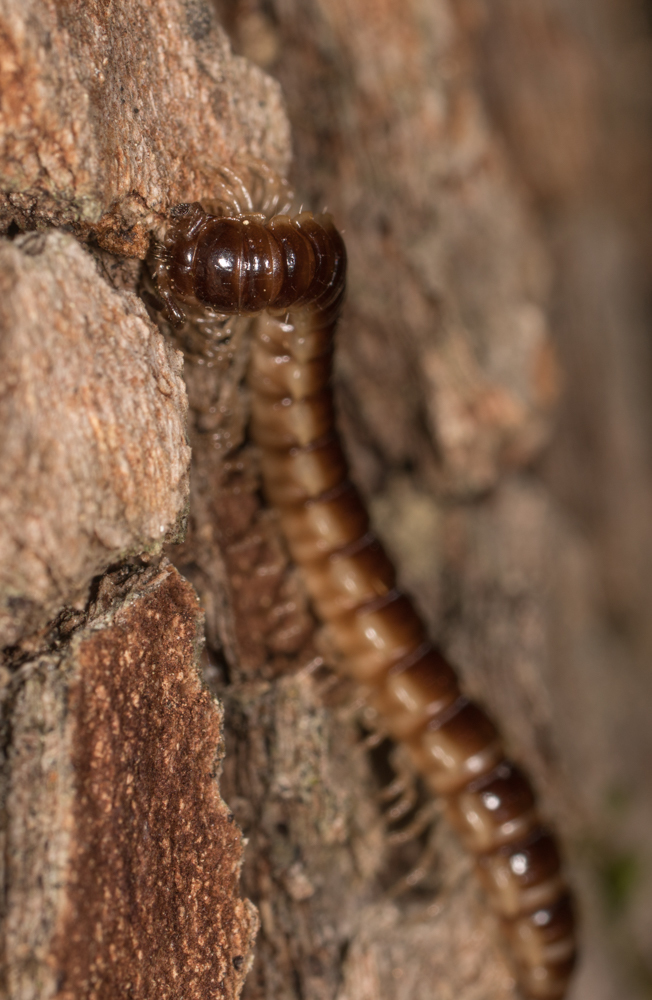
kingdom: Animalia
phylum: Arthropoda
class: Diplopoda
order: Polydesmida
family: Paradoxosomatidae
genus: Oxidus
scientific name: Oxidus gracilis
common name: Greenhouse millipede
